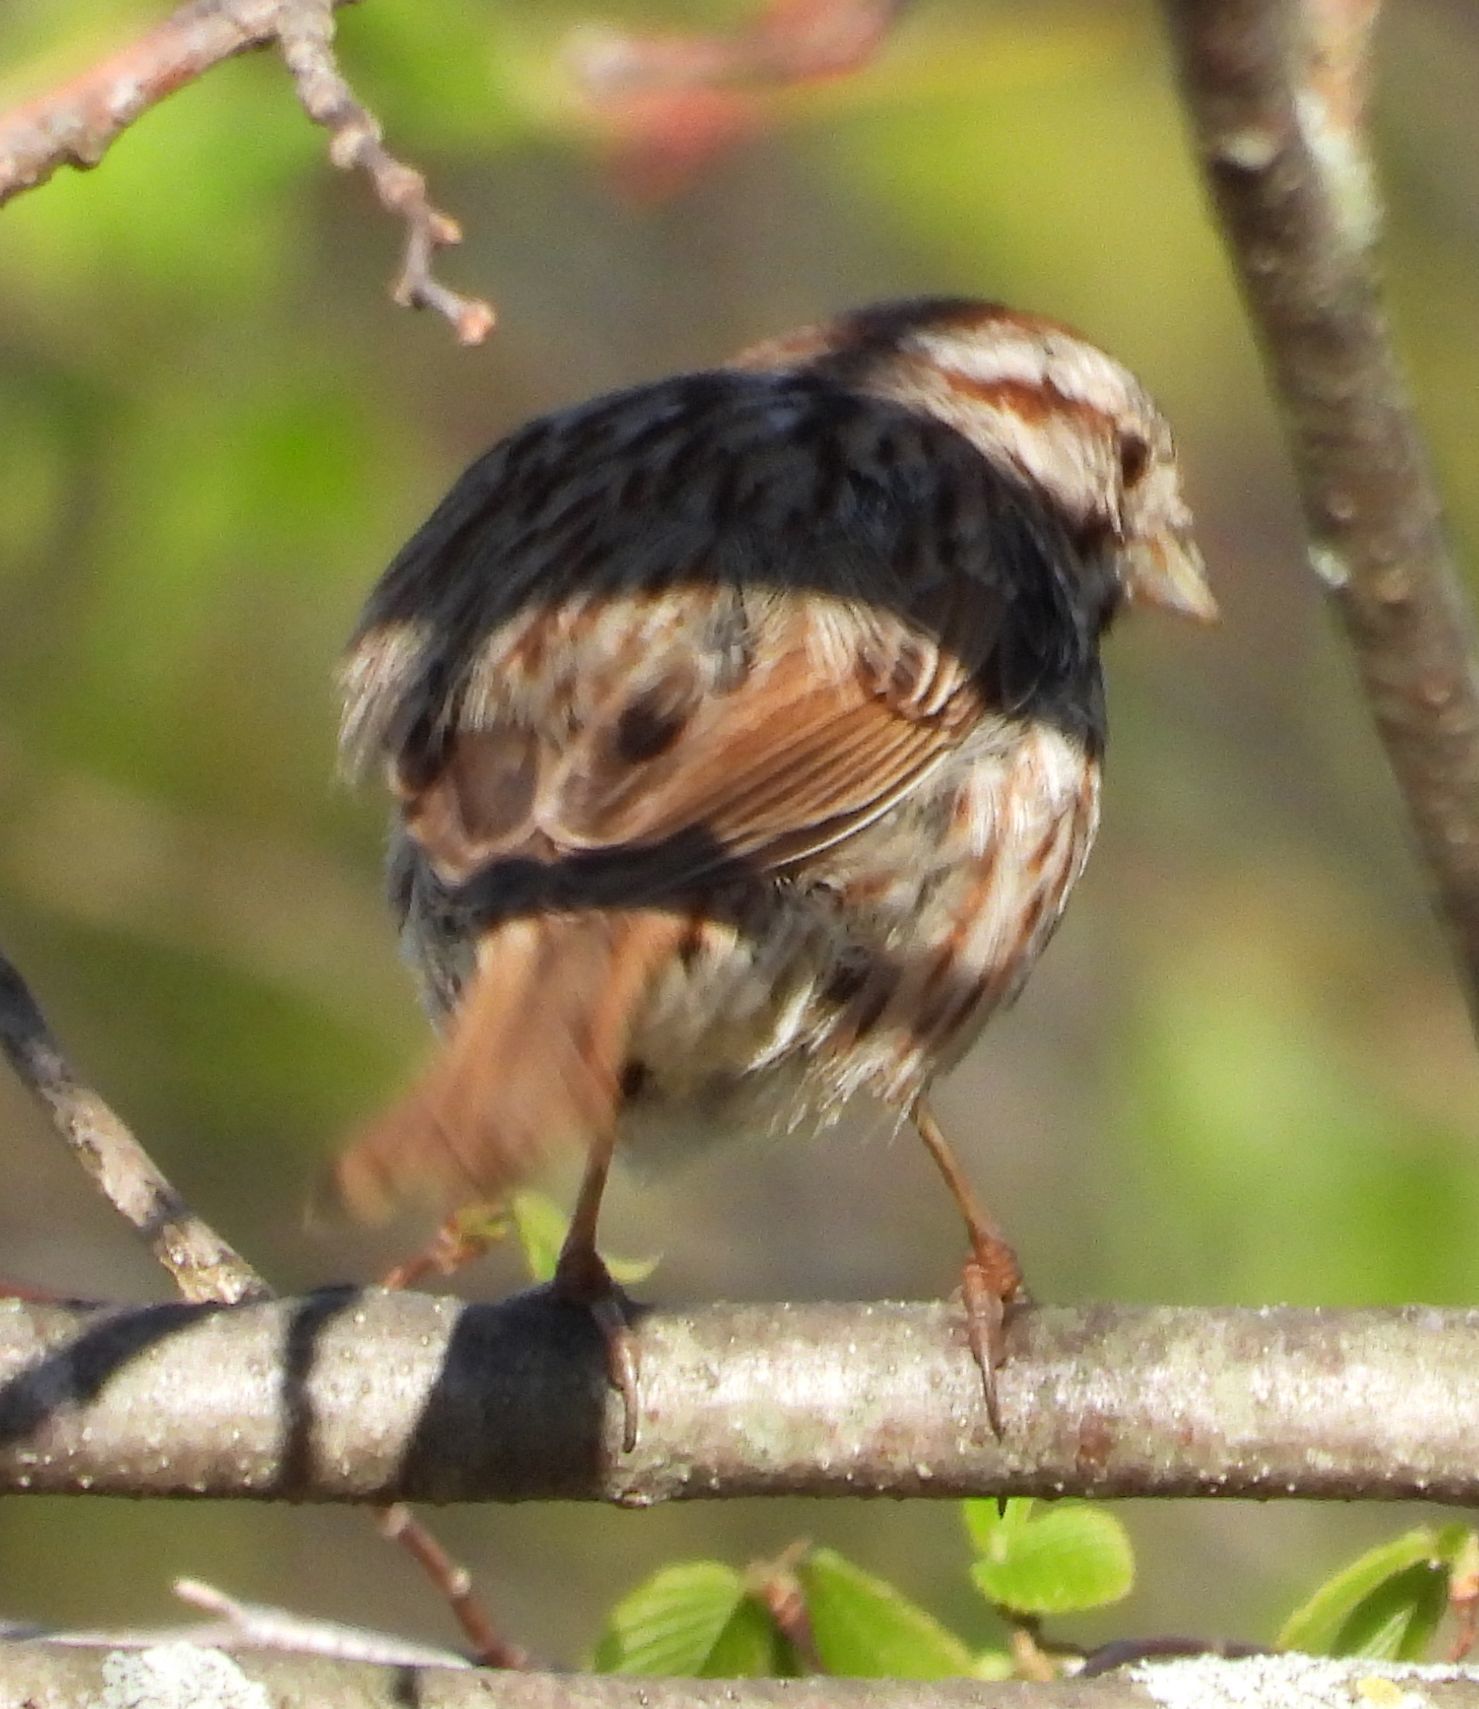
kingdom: Animalia
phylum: Chordata
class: Aves
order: Passeriformes
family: Passerellidae
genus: Melospiza
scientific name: Melospiza melodia
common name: Song sparrow
